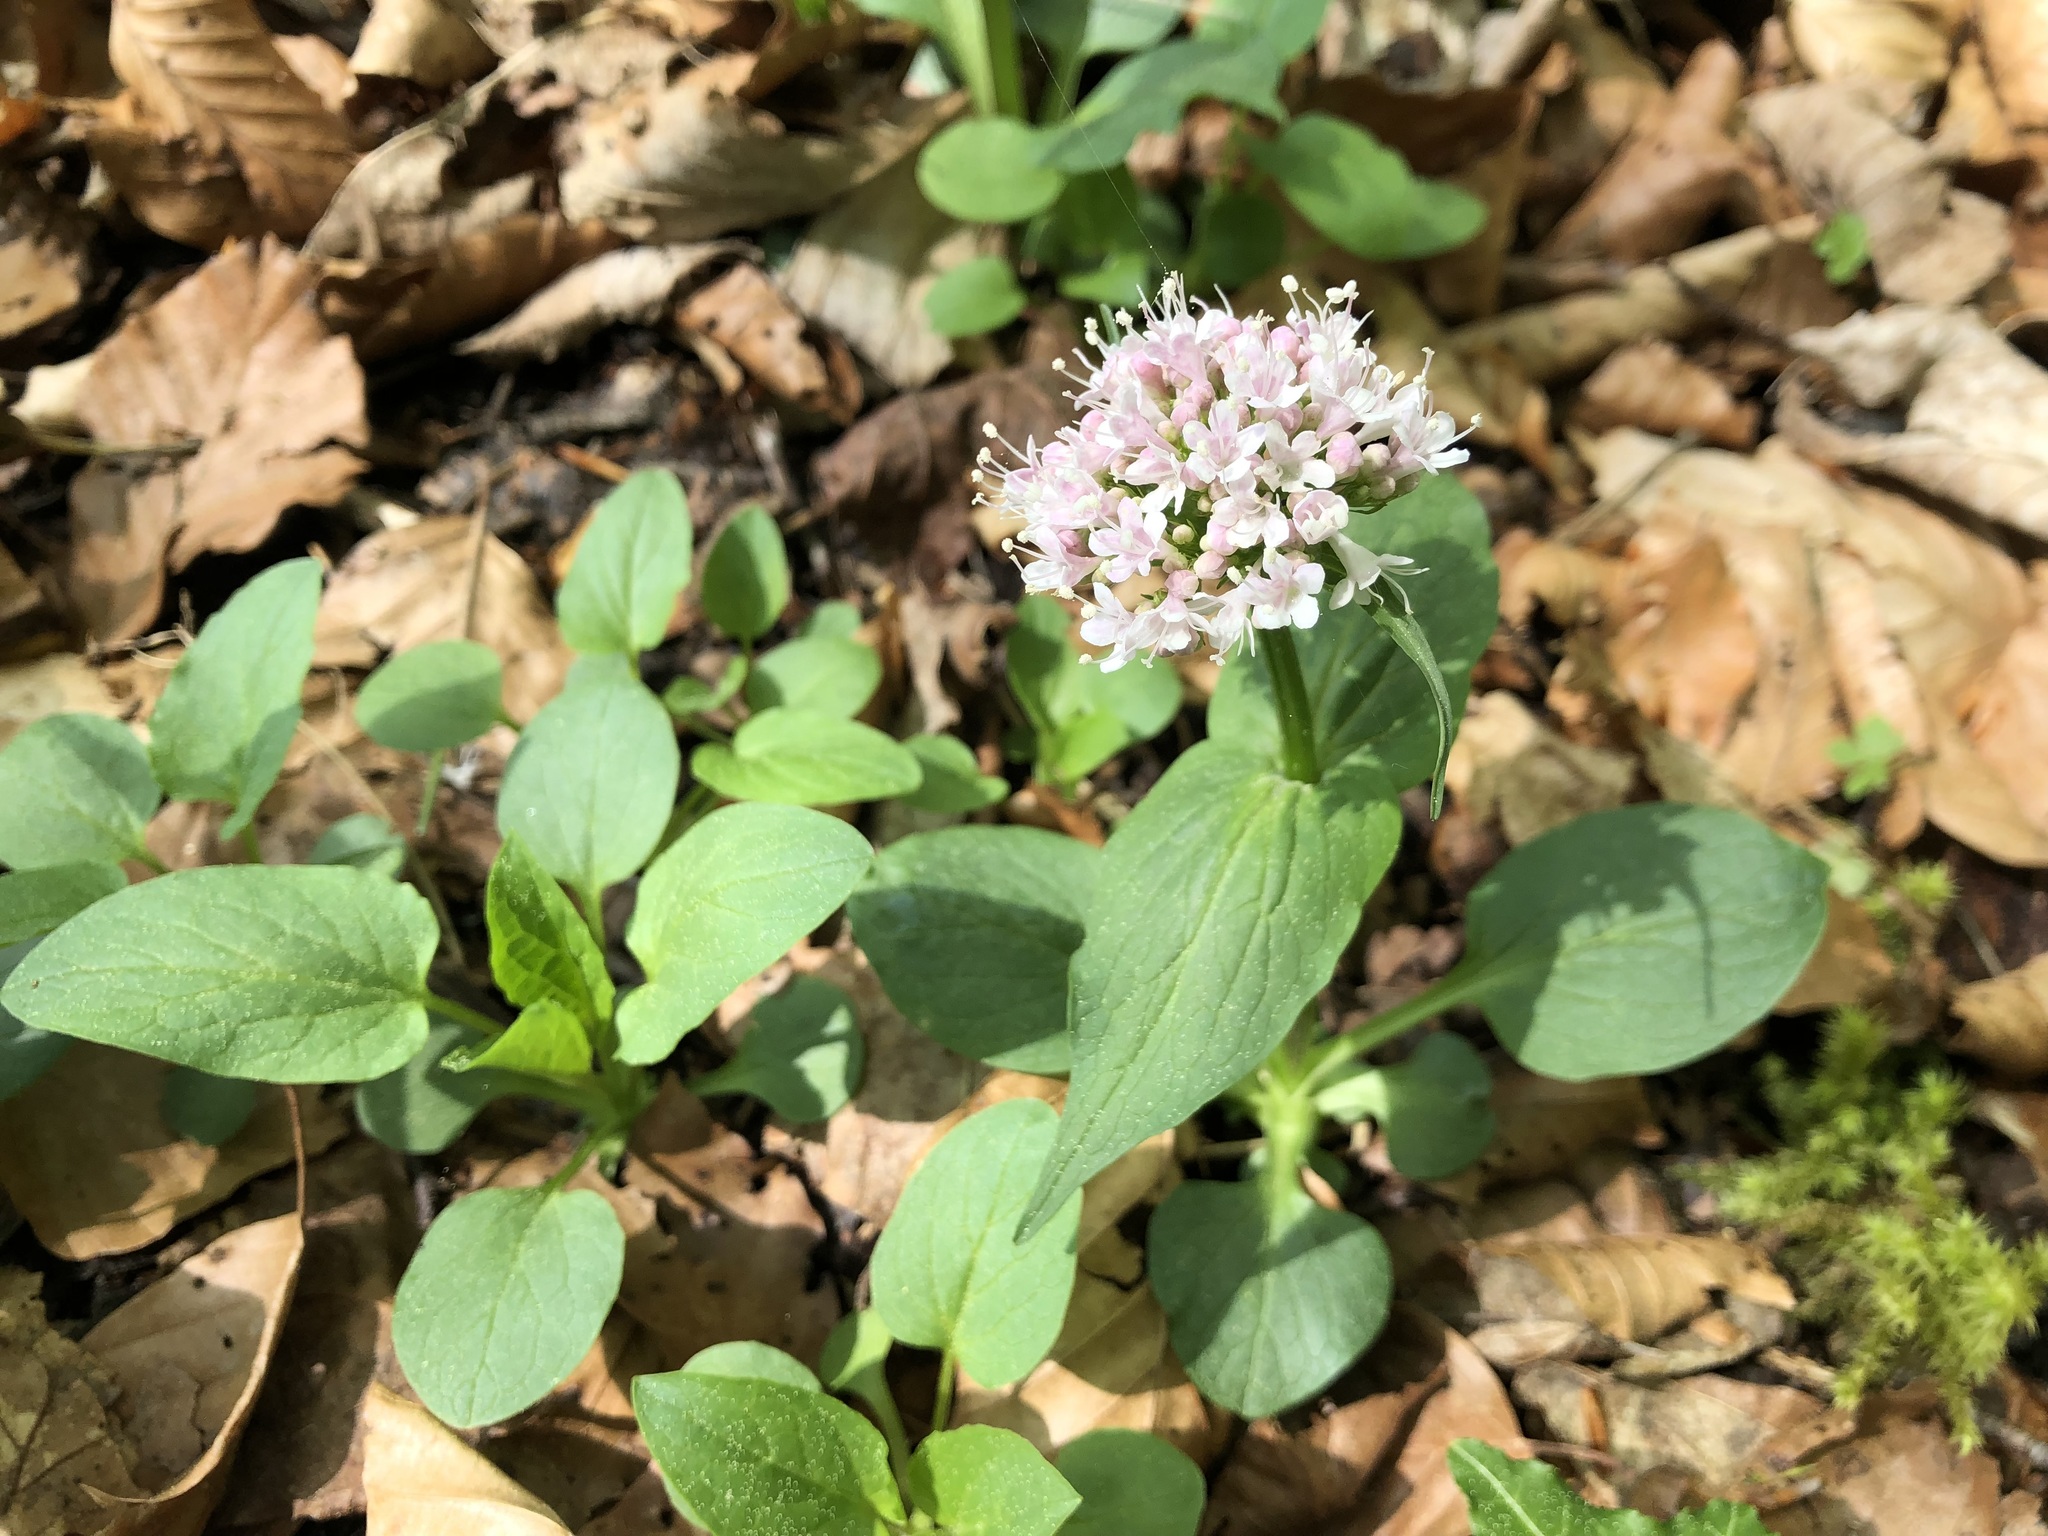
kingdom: Plantae
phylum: Tracheophyta
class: Magnoliopsida
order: Dipsacales
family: Caprifoliaceae
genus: Valeriana
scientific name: Valeriana montana
